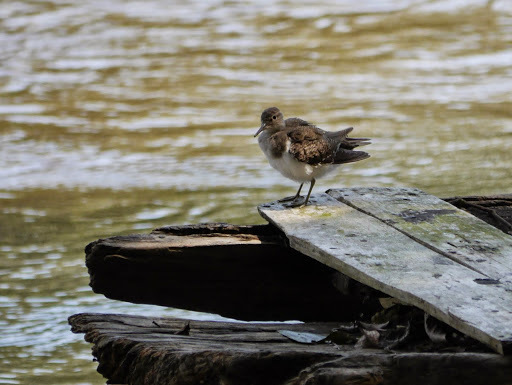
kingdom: Animalia
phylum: Chordata
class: Aves
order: Charadriiformes
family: Scolopacidae
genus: Actitis
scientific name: Actitis hypoleucos
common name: Common sandpiper
